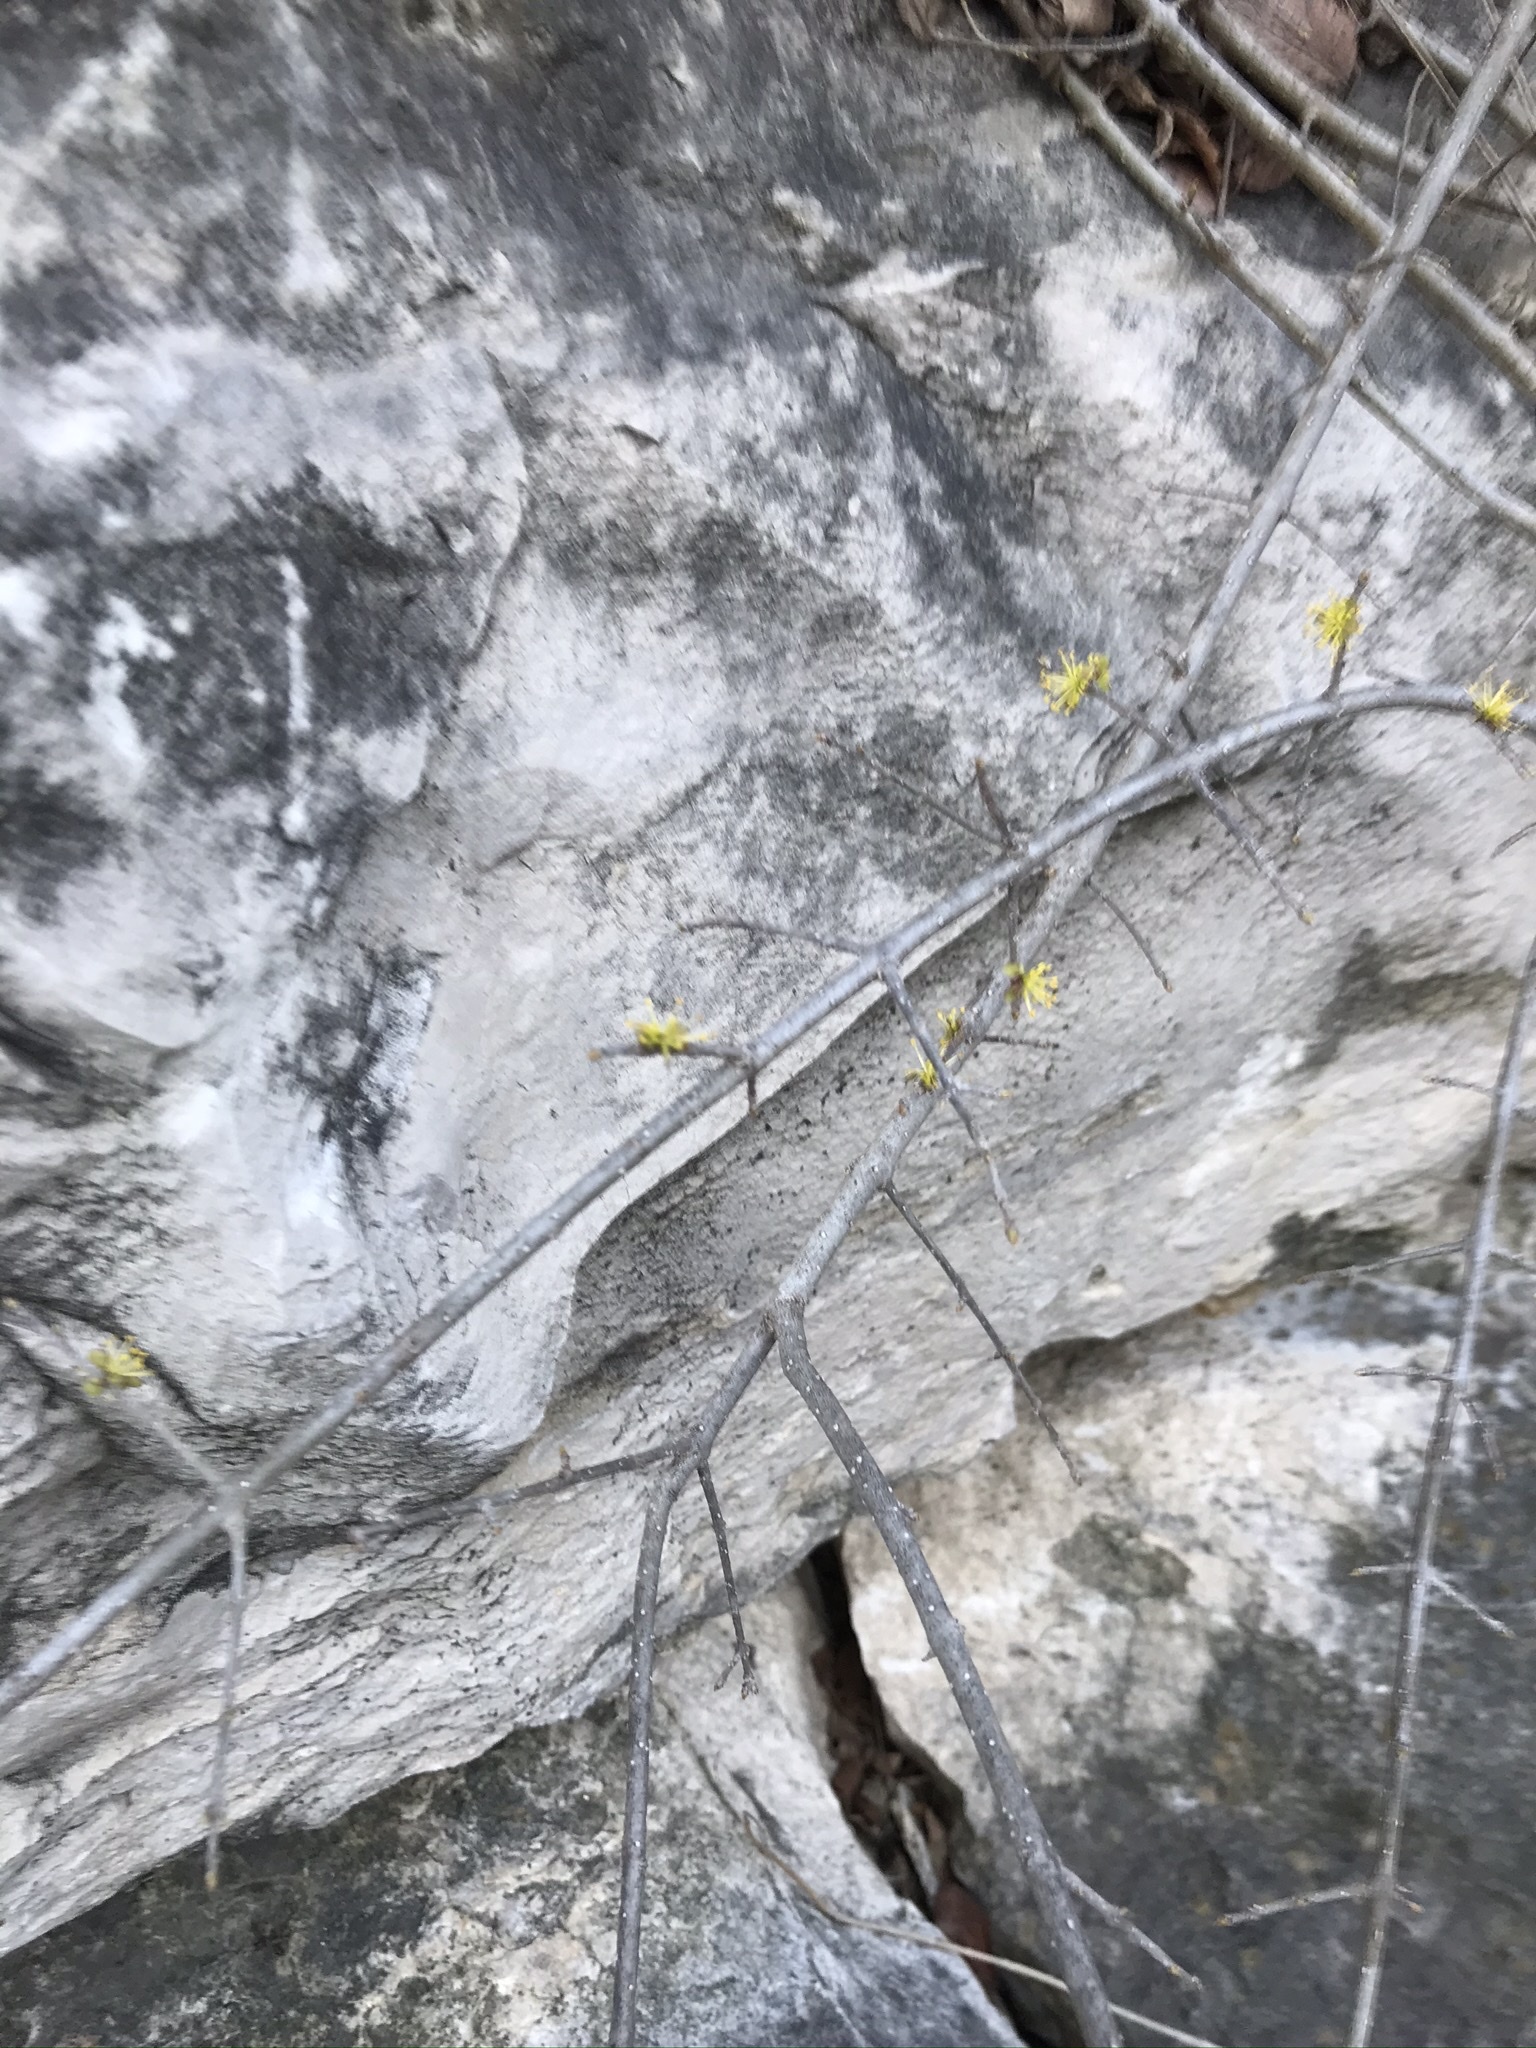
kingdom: Plantae
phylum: Tracheophyta
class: Magnoliopsida
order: Lamiales
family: Oleaceae
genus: Forestiera
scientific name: Forestiera pubescens
